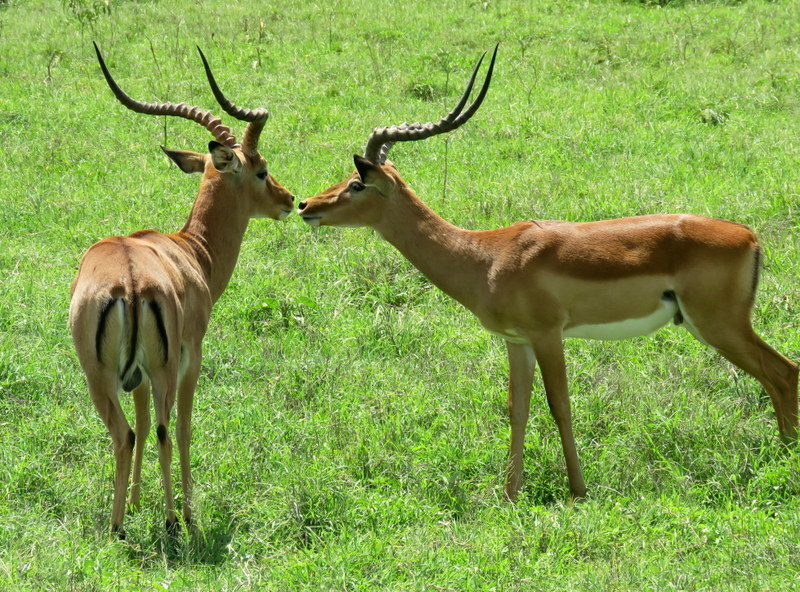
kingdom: Animalia
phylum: Chordata
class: Mammalia
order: Artiodactyla
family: Bovidae
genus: Aepyceros
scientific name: Aepyceros melampus
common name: Impala
